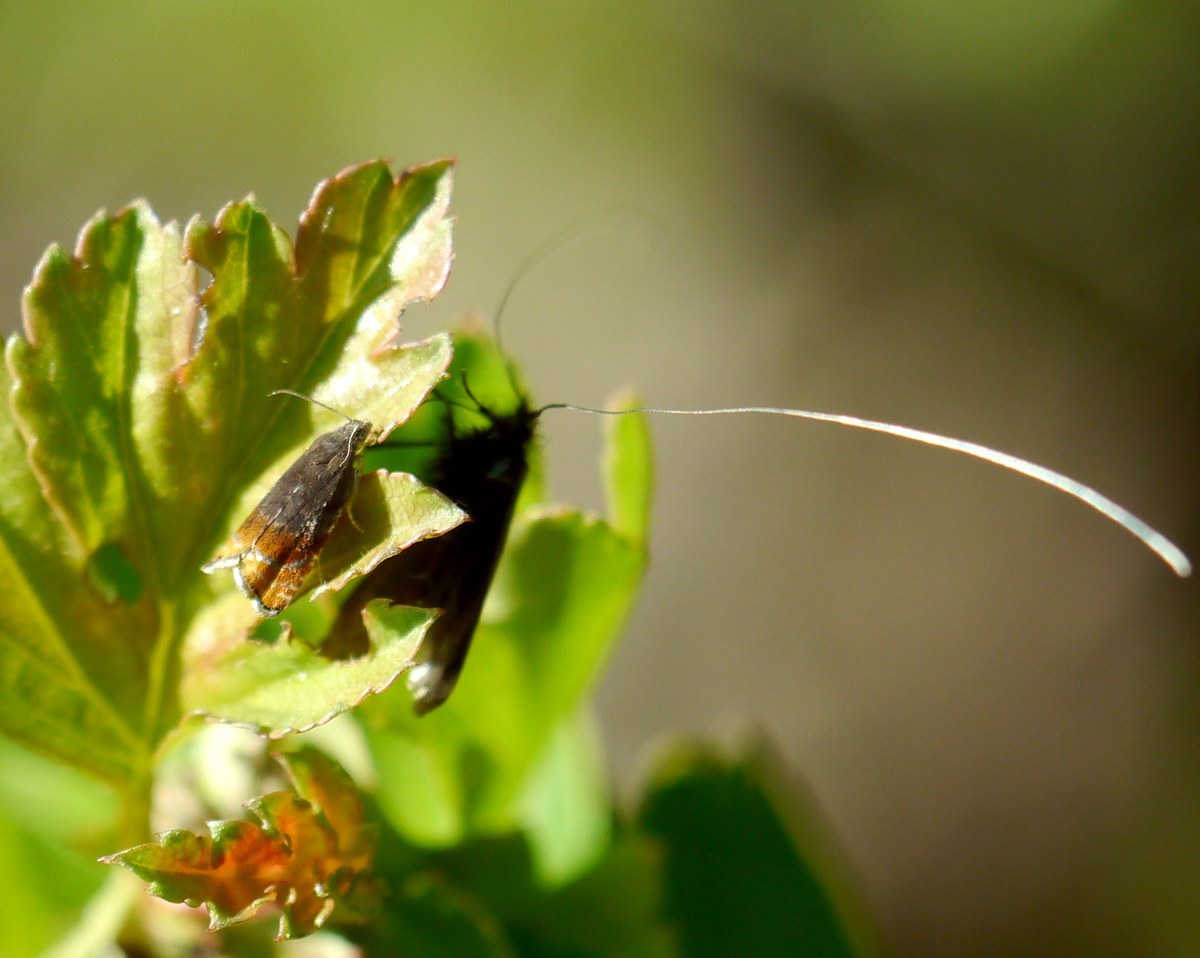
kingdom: Animalia
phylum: Arthropoda
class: Insecta
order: Lepidoptera
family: Tortricidae
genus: Pammene
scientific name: Pammene rhediella
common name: Fruitlet-mining tortrix
